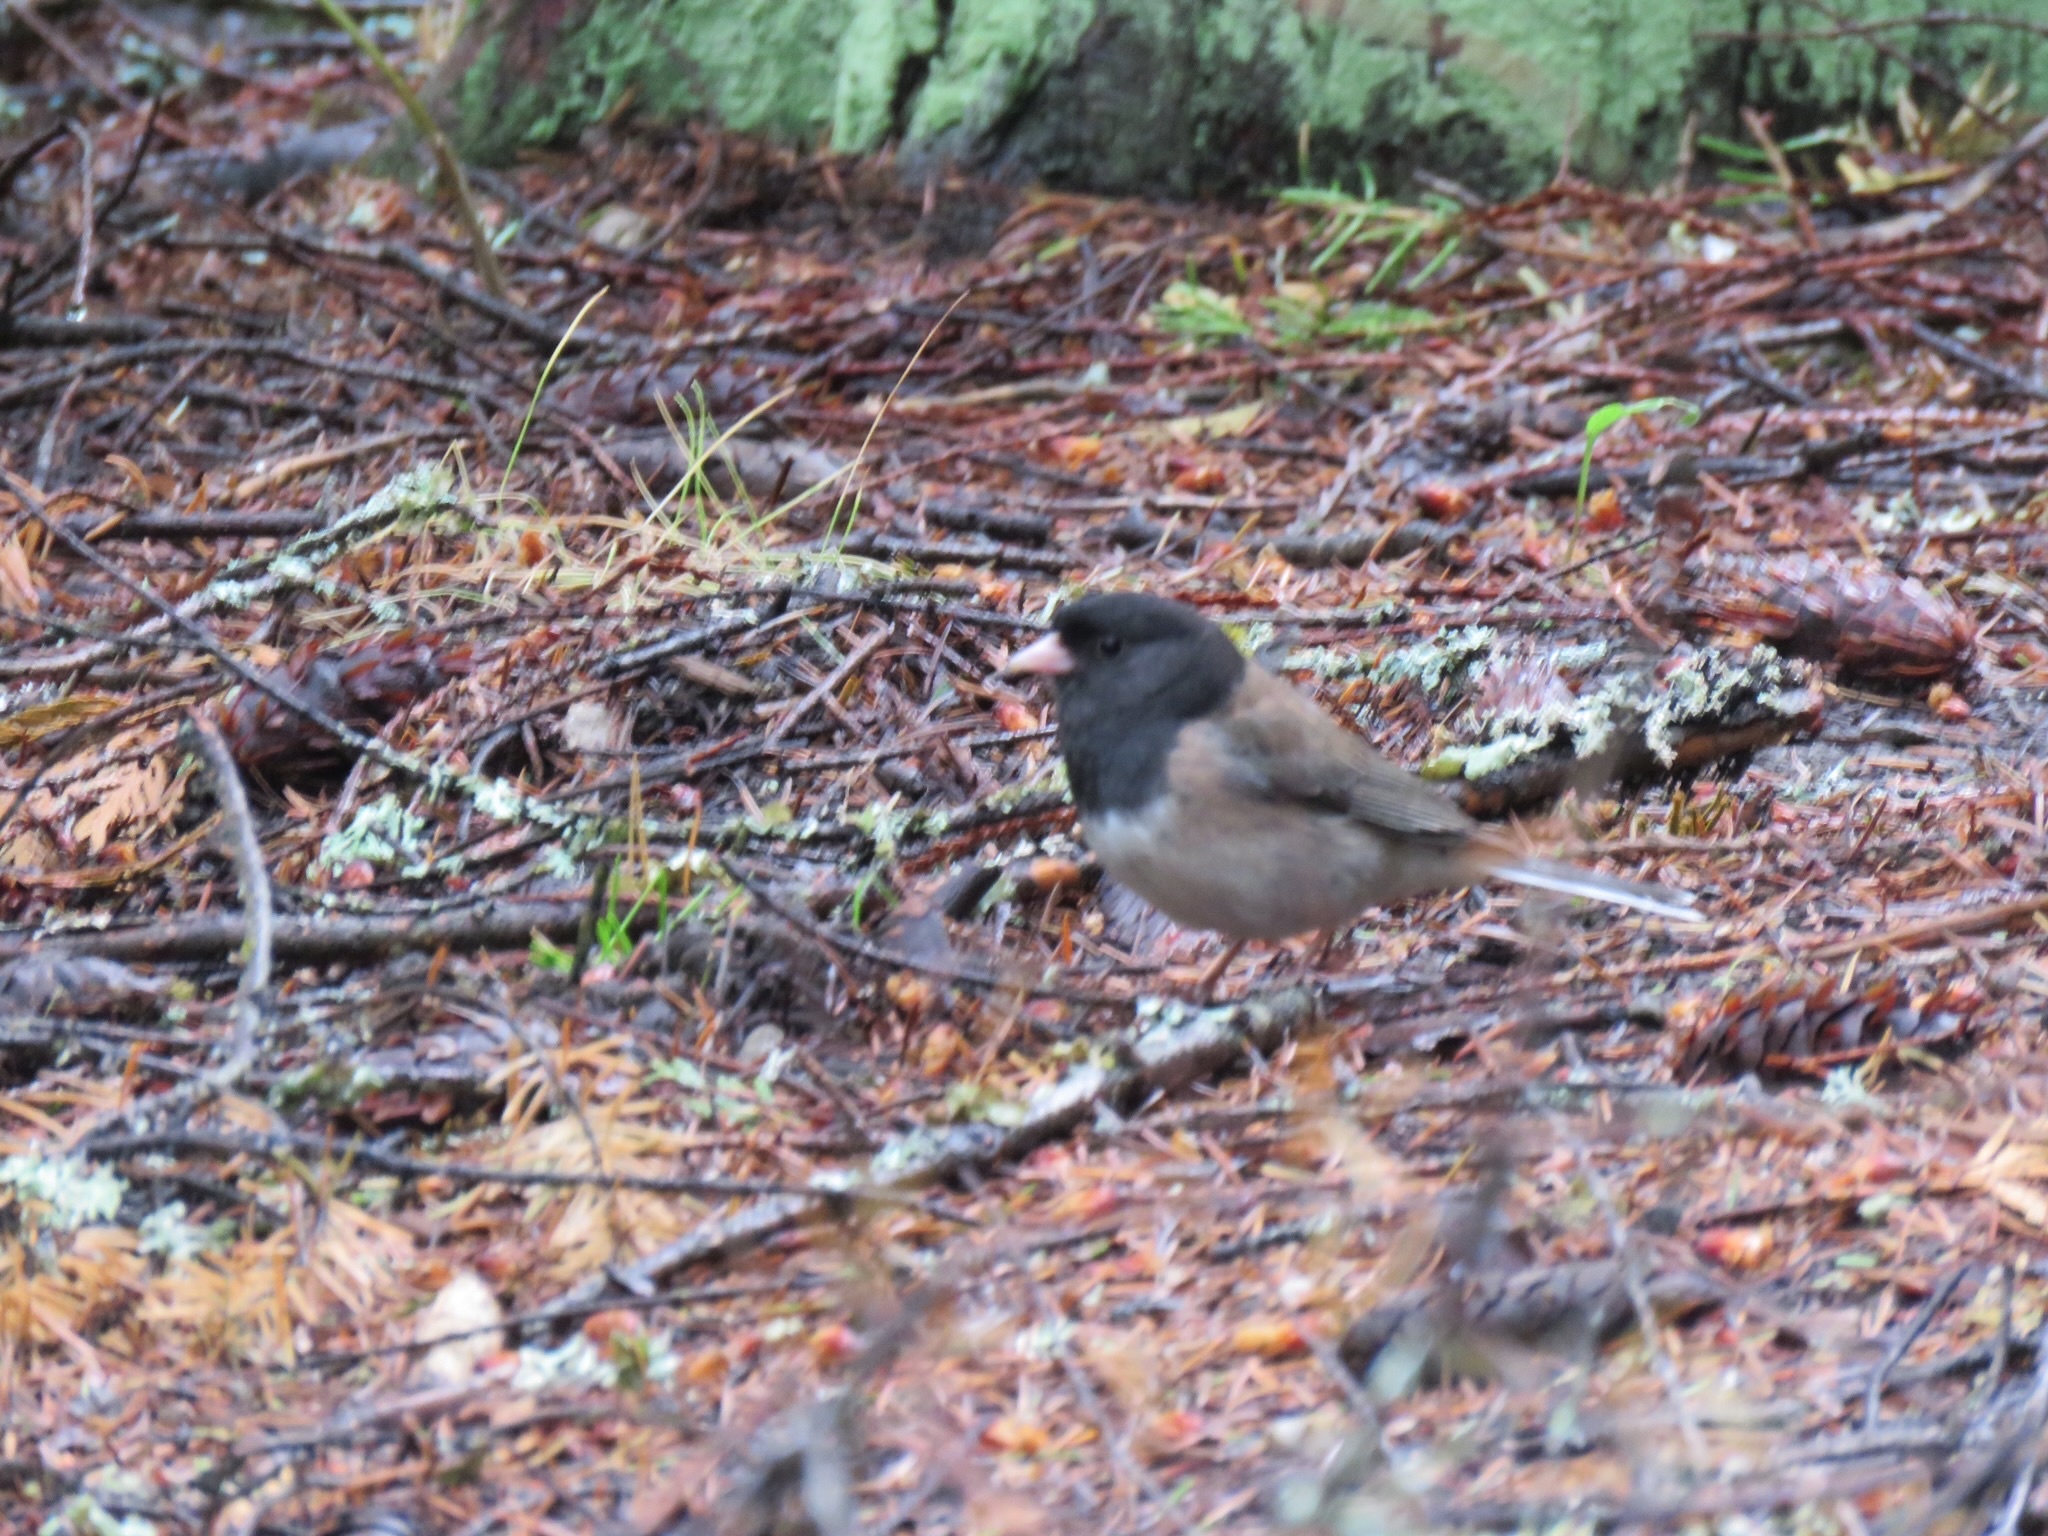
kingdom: Animalia
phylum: Chordata
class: Aves
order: Passeriformes
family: Passerellidae
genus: Junco
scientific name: Junco hyemalis
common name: Dark-eyed junco
